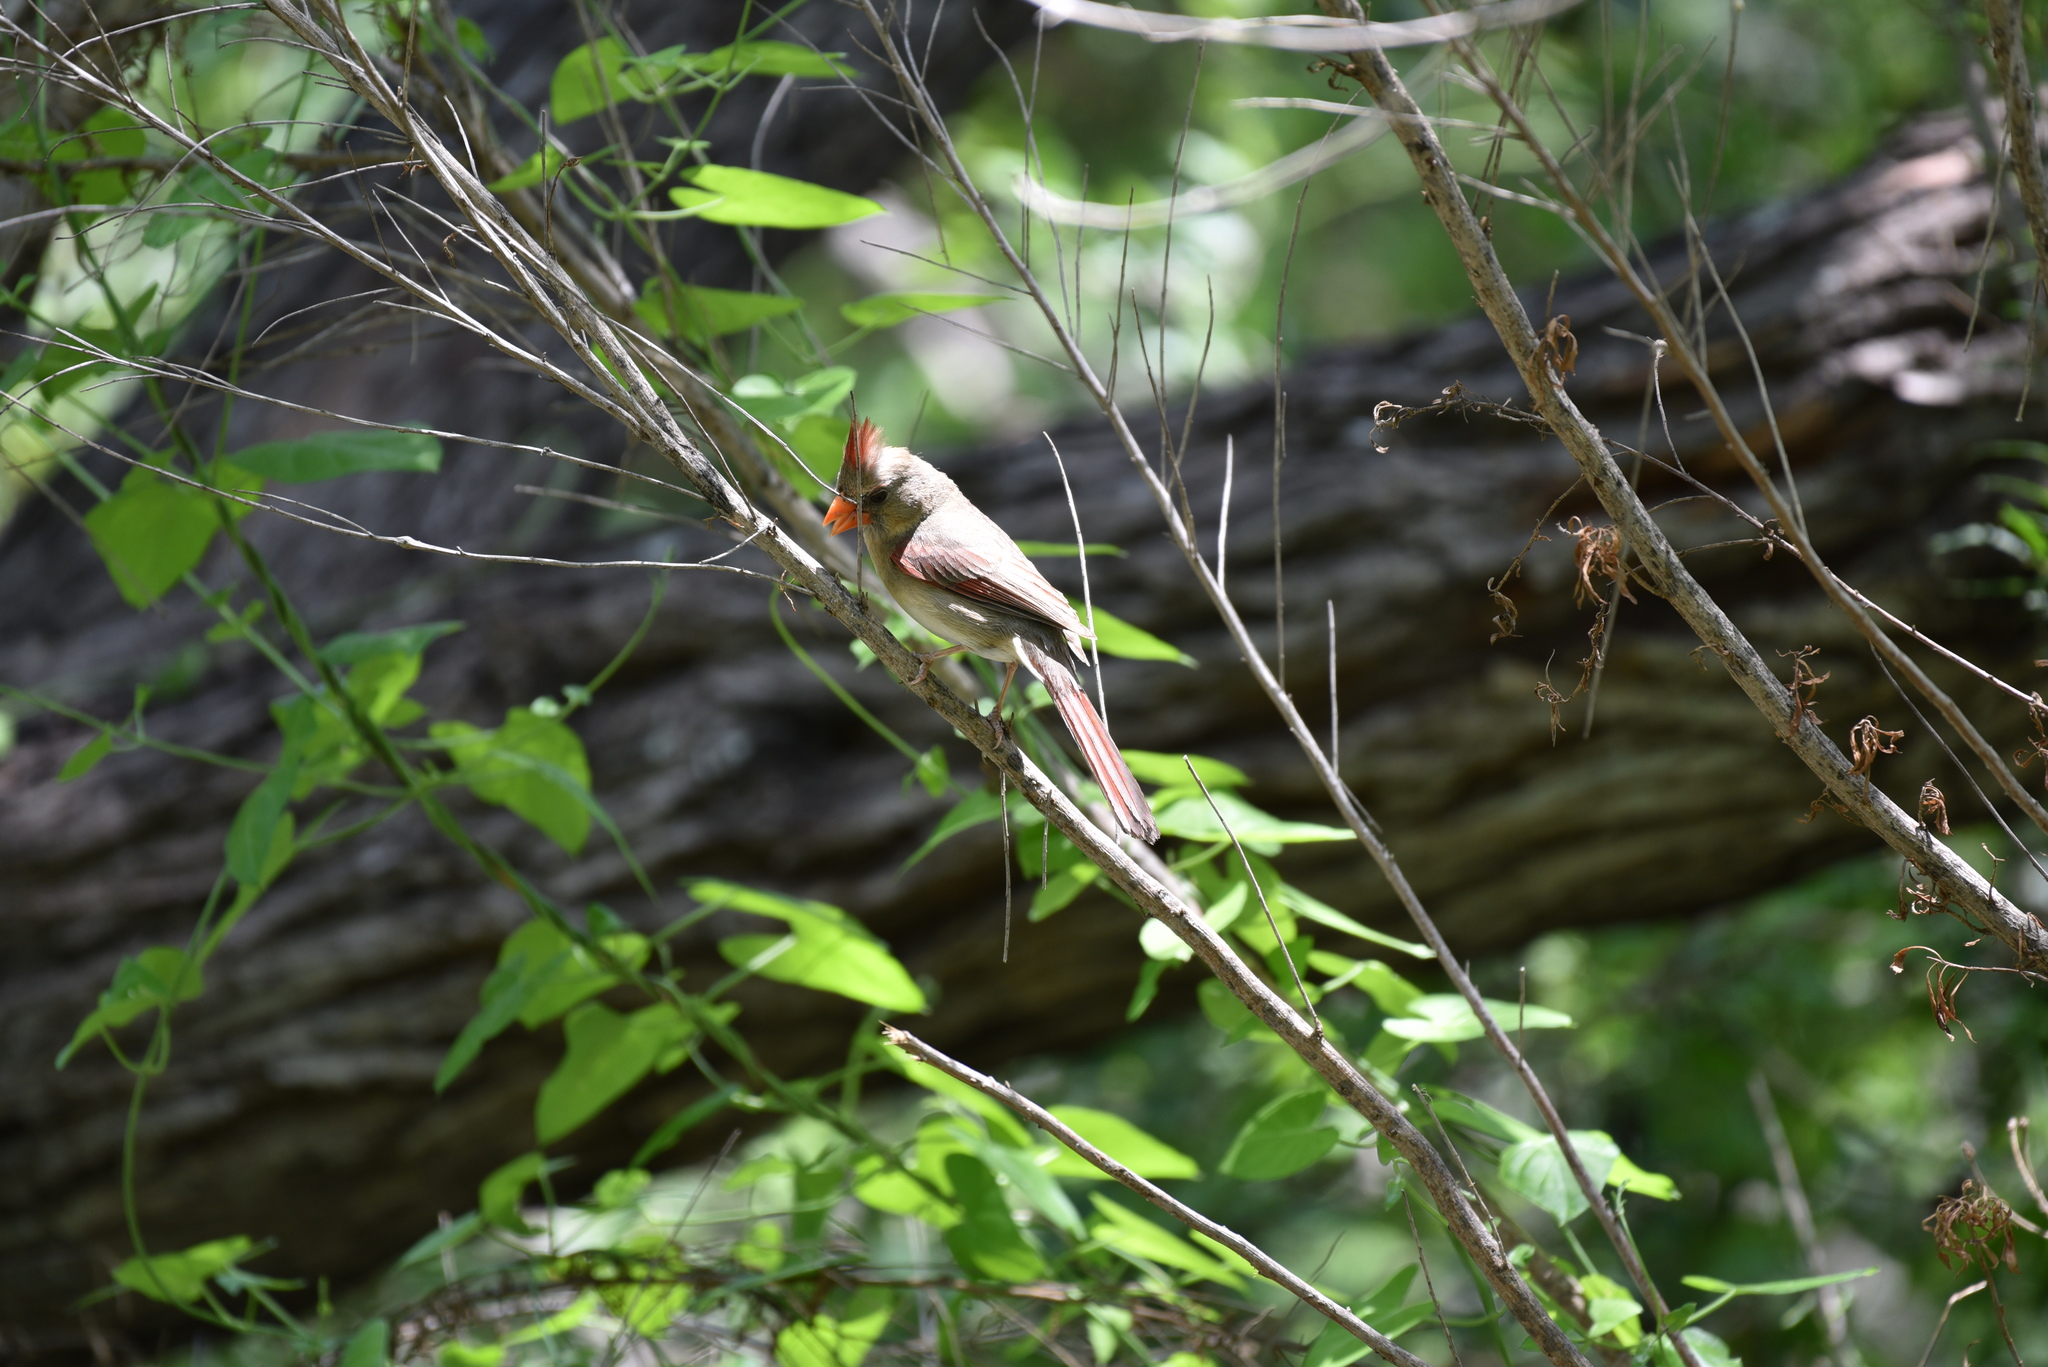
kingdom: Animalia
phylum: Chordata
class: Aves
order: Passeriformes
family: Cardinalidae
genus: Cardinalis
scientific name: Cardinalis cardinalis
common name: Northern cardinal
